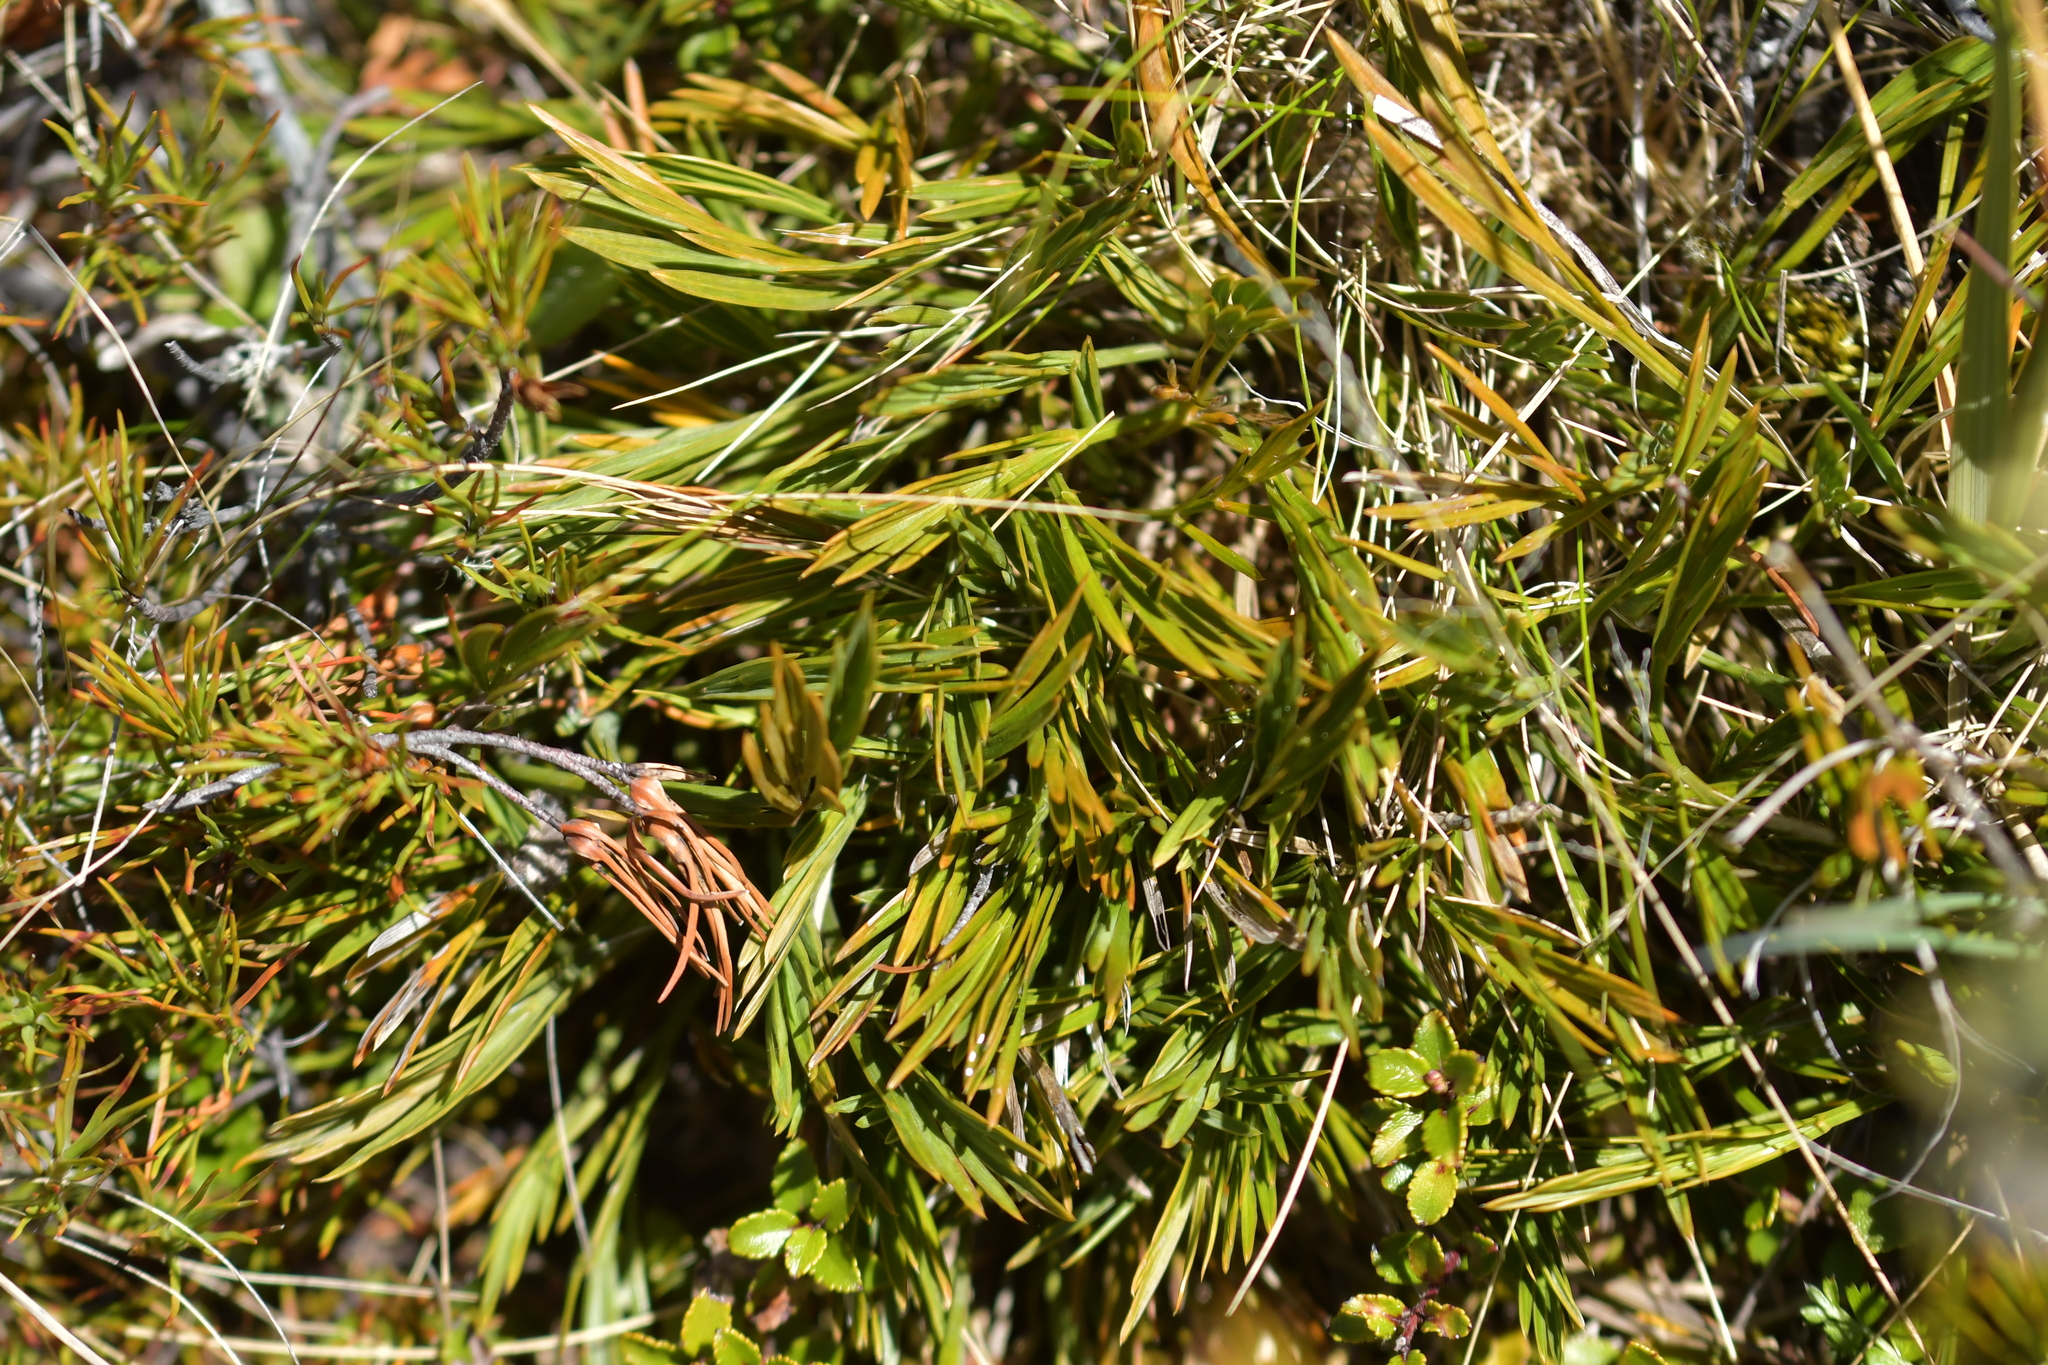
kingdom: Plantae
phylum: Tracheophyta
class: Magnoliopsida
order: Apiales
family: Apiaceae
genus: Aciphylla
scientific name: Aciphylla monroi
